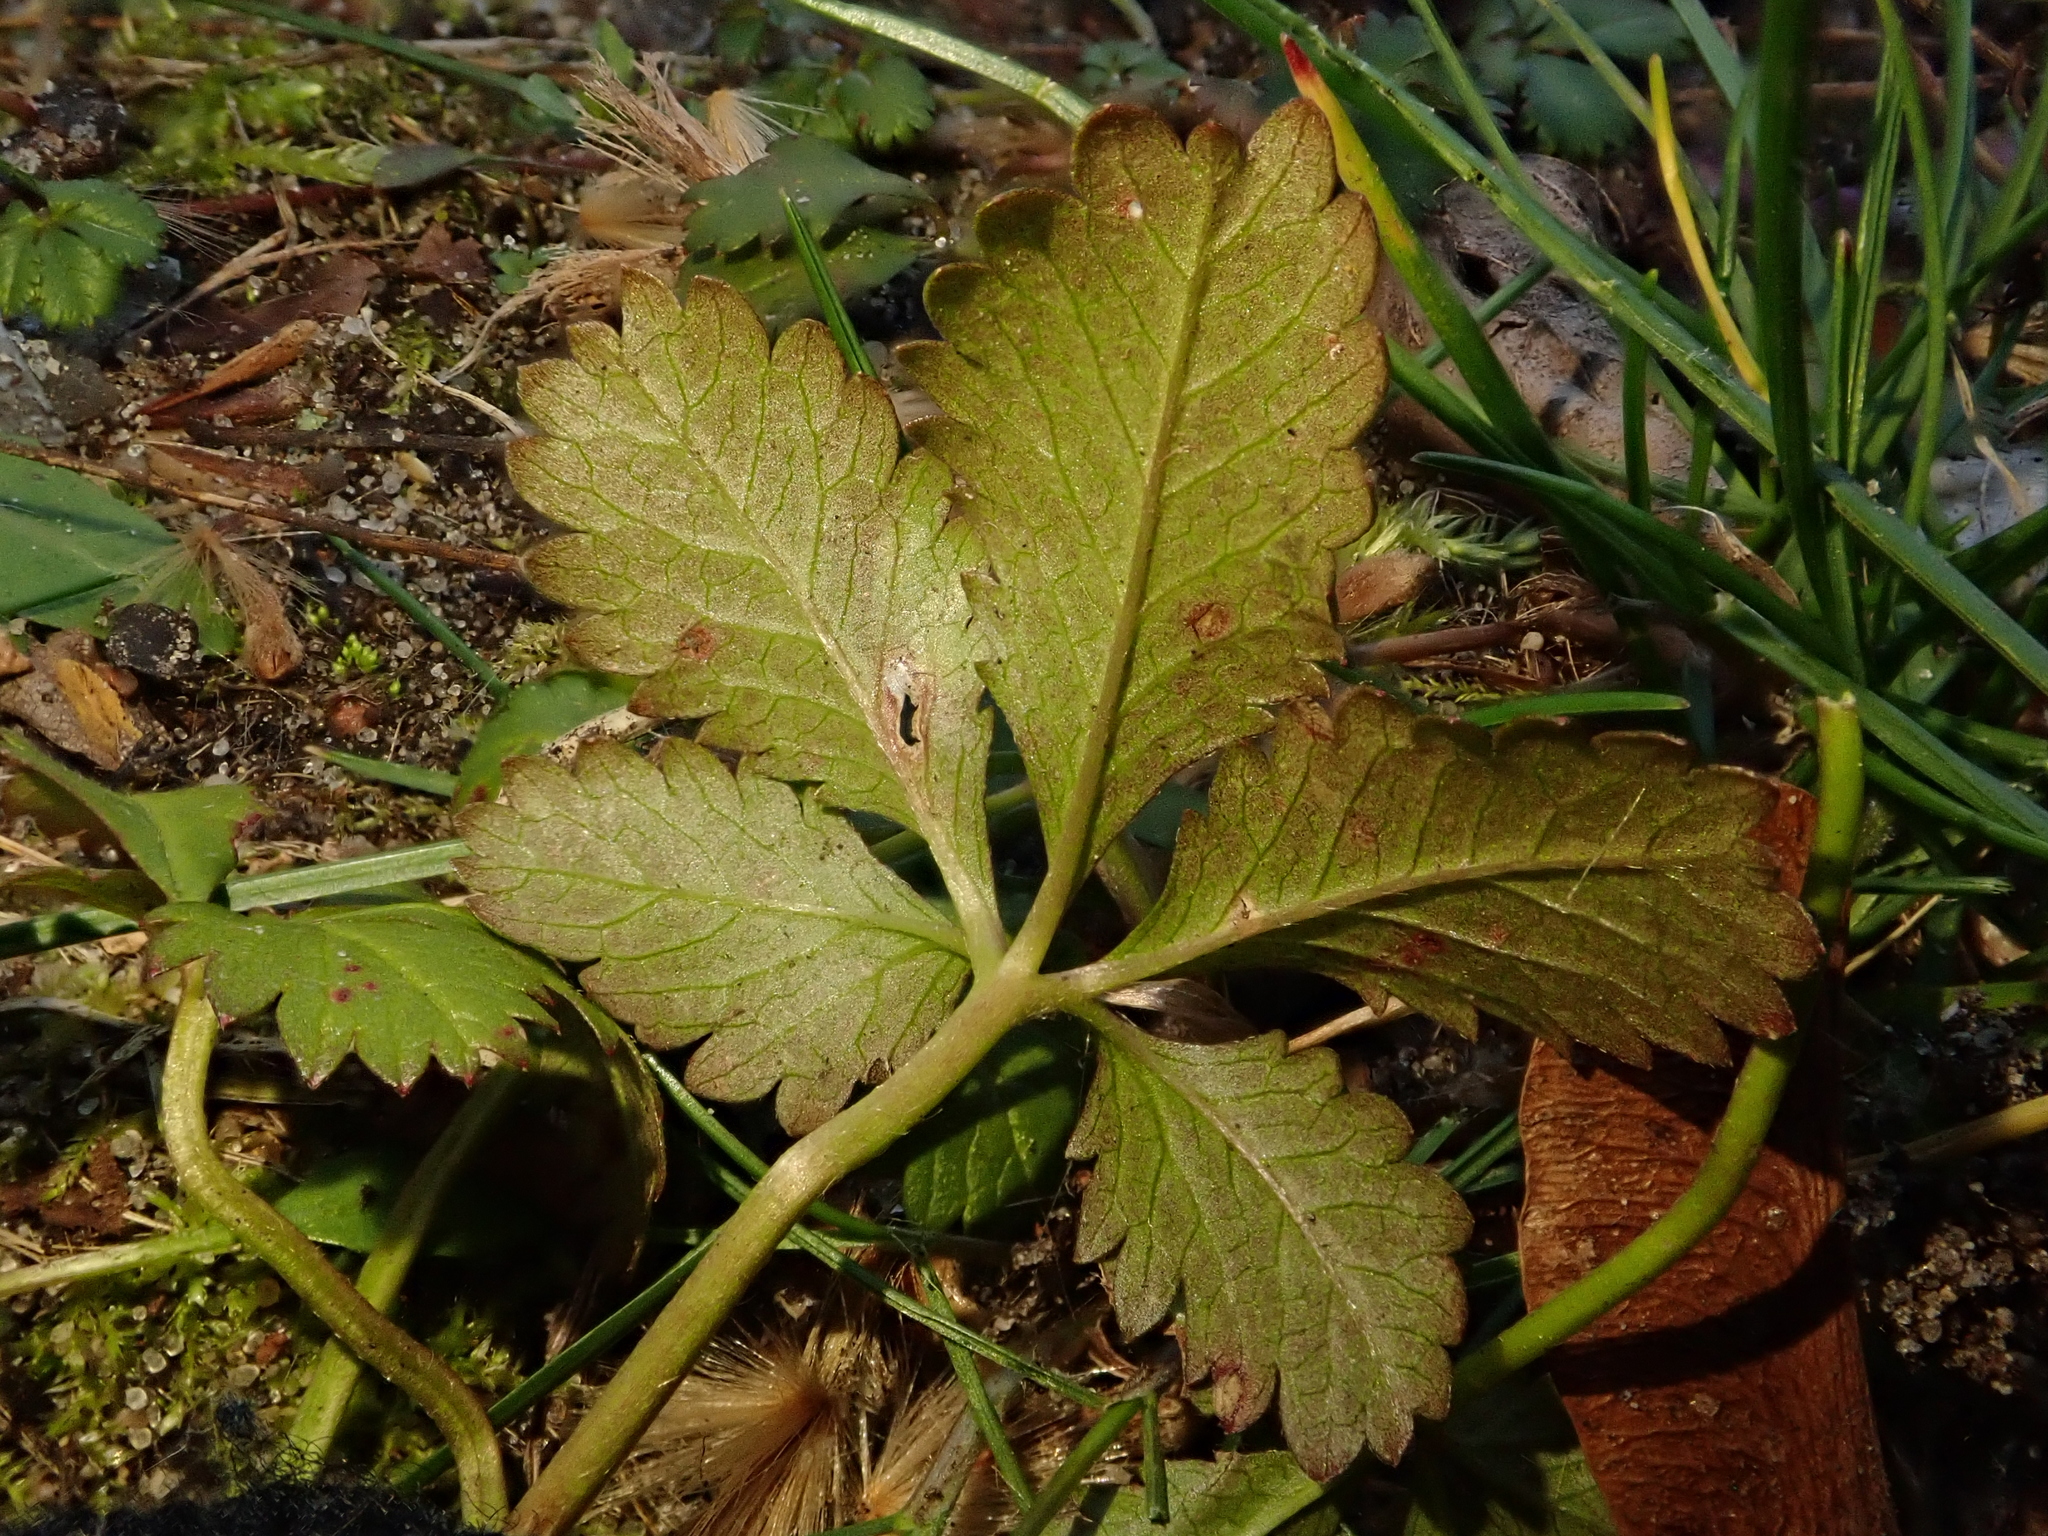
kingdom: Plantae
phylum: Tracheophyta
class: Magnoliopsida
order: Rosales
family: Rosaceae
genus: Potentilla
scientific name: Potentilla reptans
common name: Creeping cinquefoil
